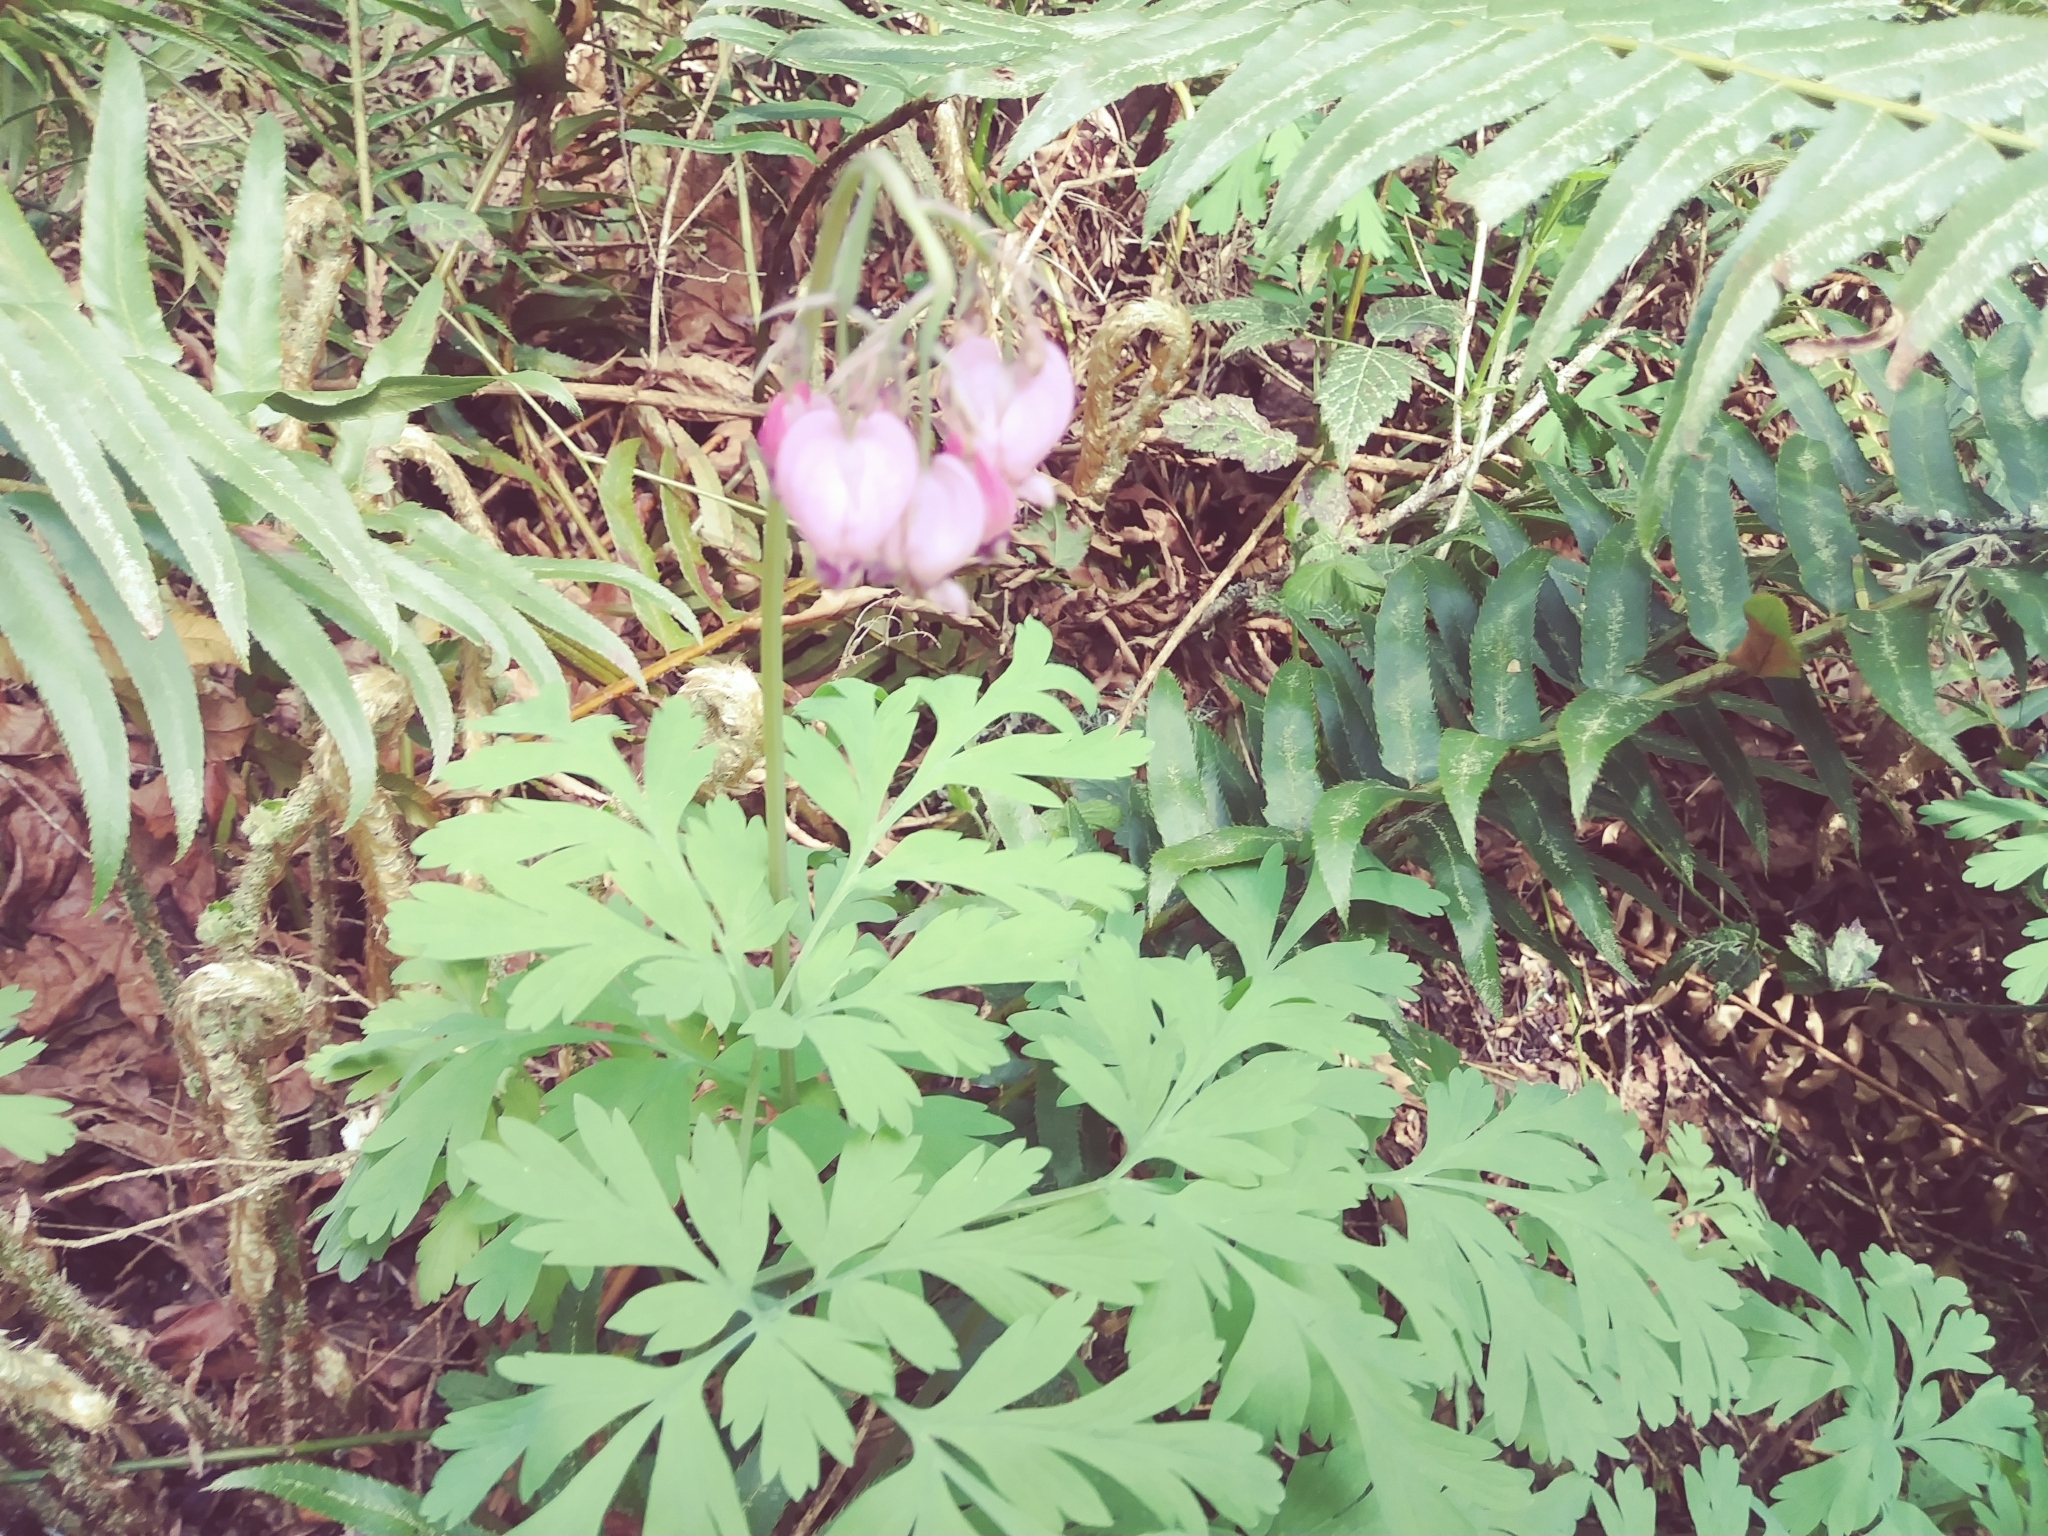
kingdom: Plantae
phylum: Tracheophyta
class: Magnoliopsida
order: Ranunculales
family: Papaveraceae
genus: Dicentra
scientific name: Dicentra formosa
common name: Bleeding-heart
